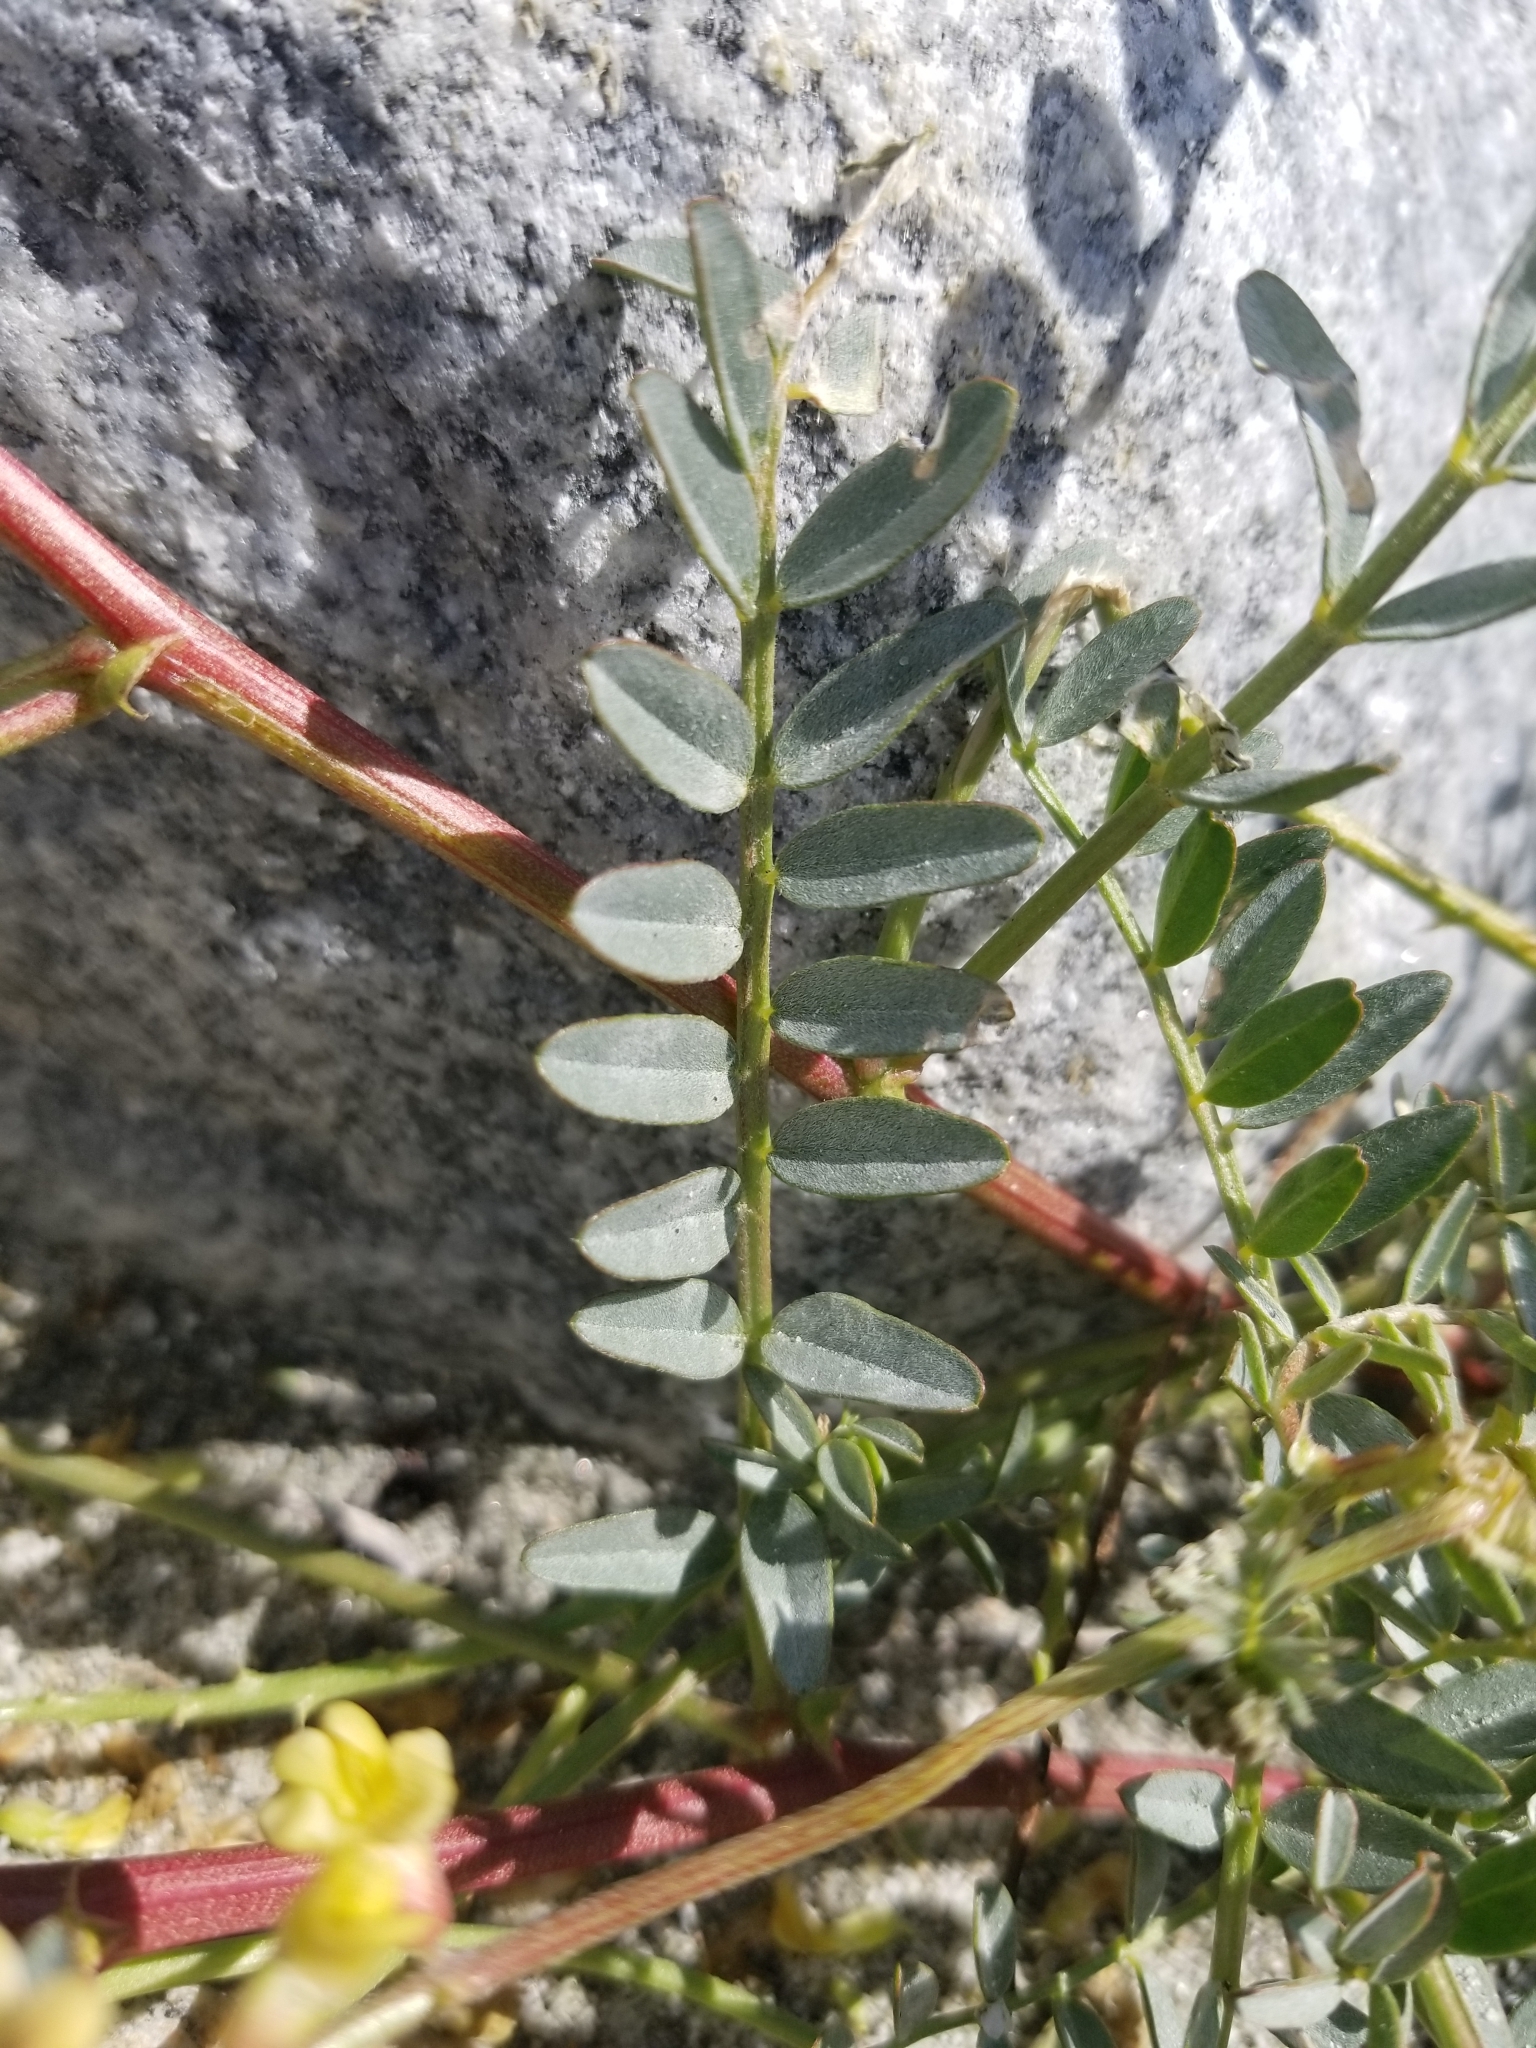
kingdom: Plantae
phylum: Tracheophyta
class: Magnoliopsida
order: Fabales
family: Fabaceae
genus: Astragalus
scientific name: Astragalus douglasii
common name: Jacumba milkvetch
